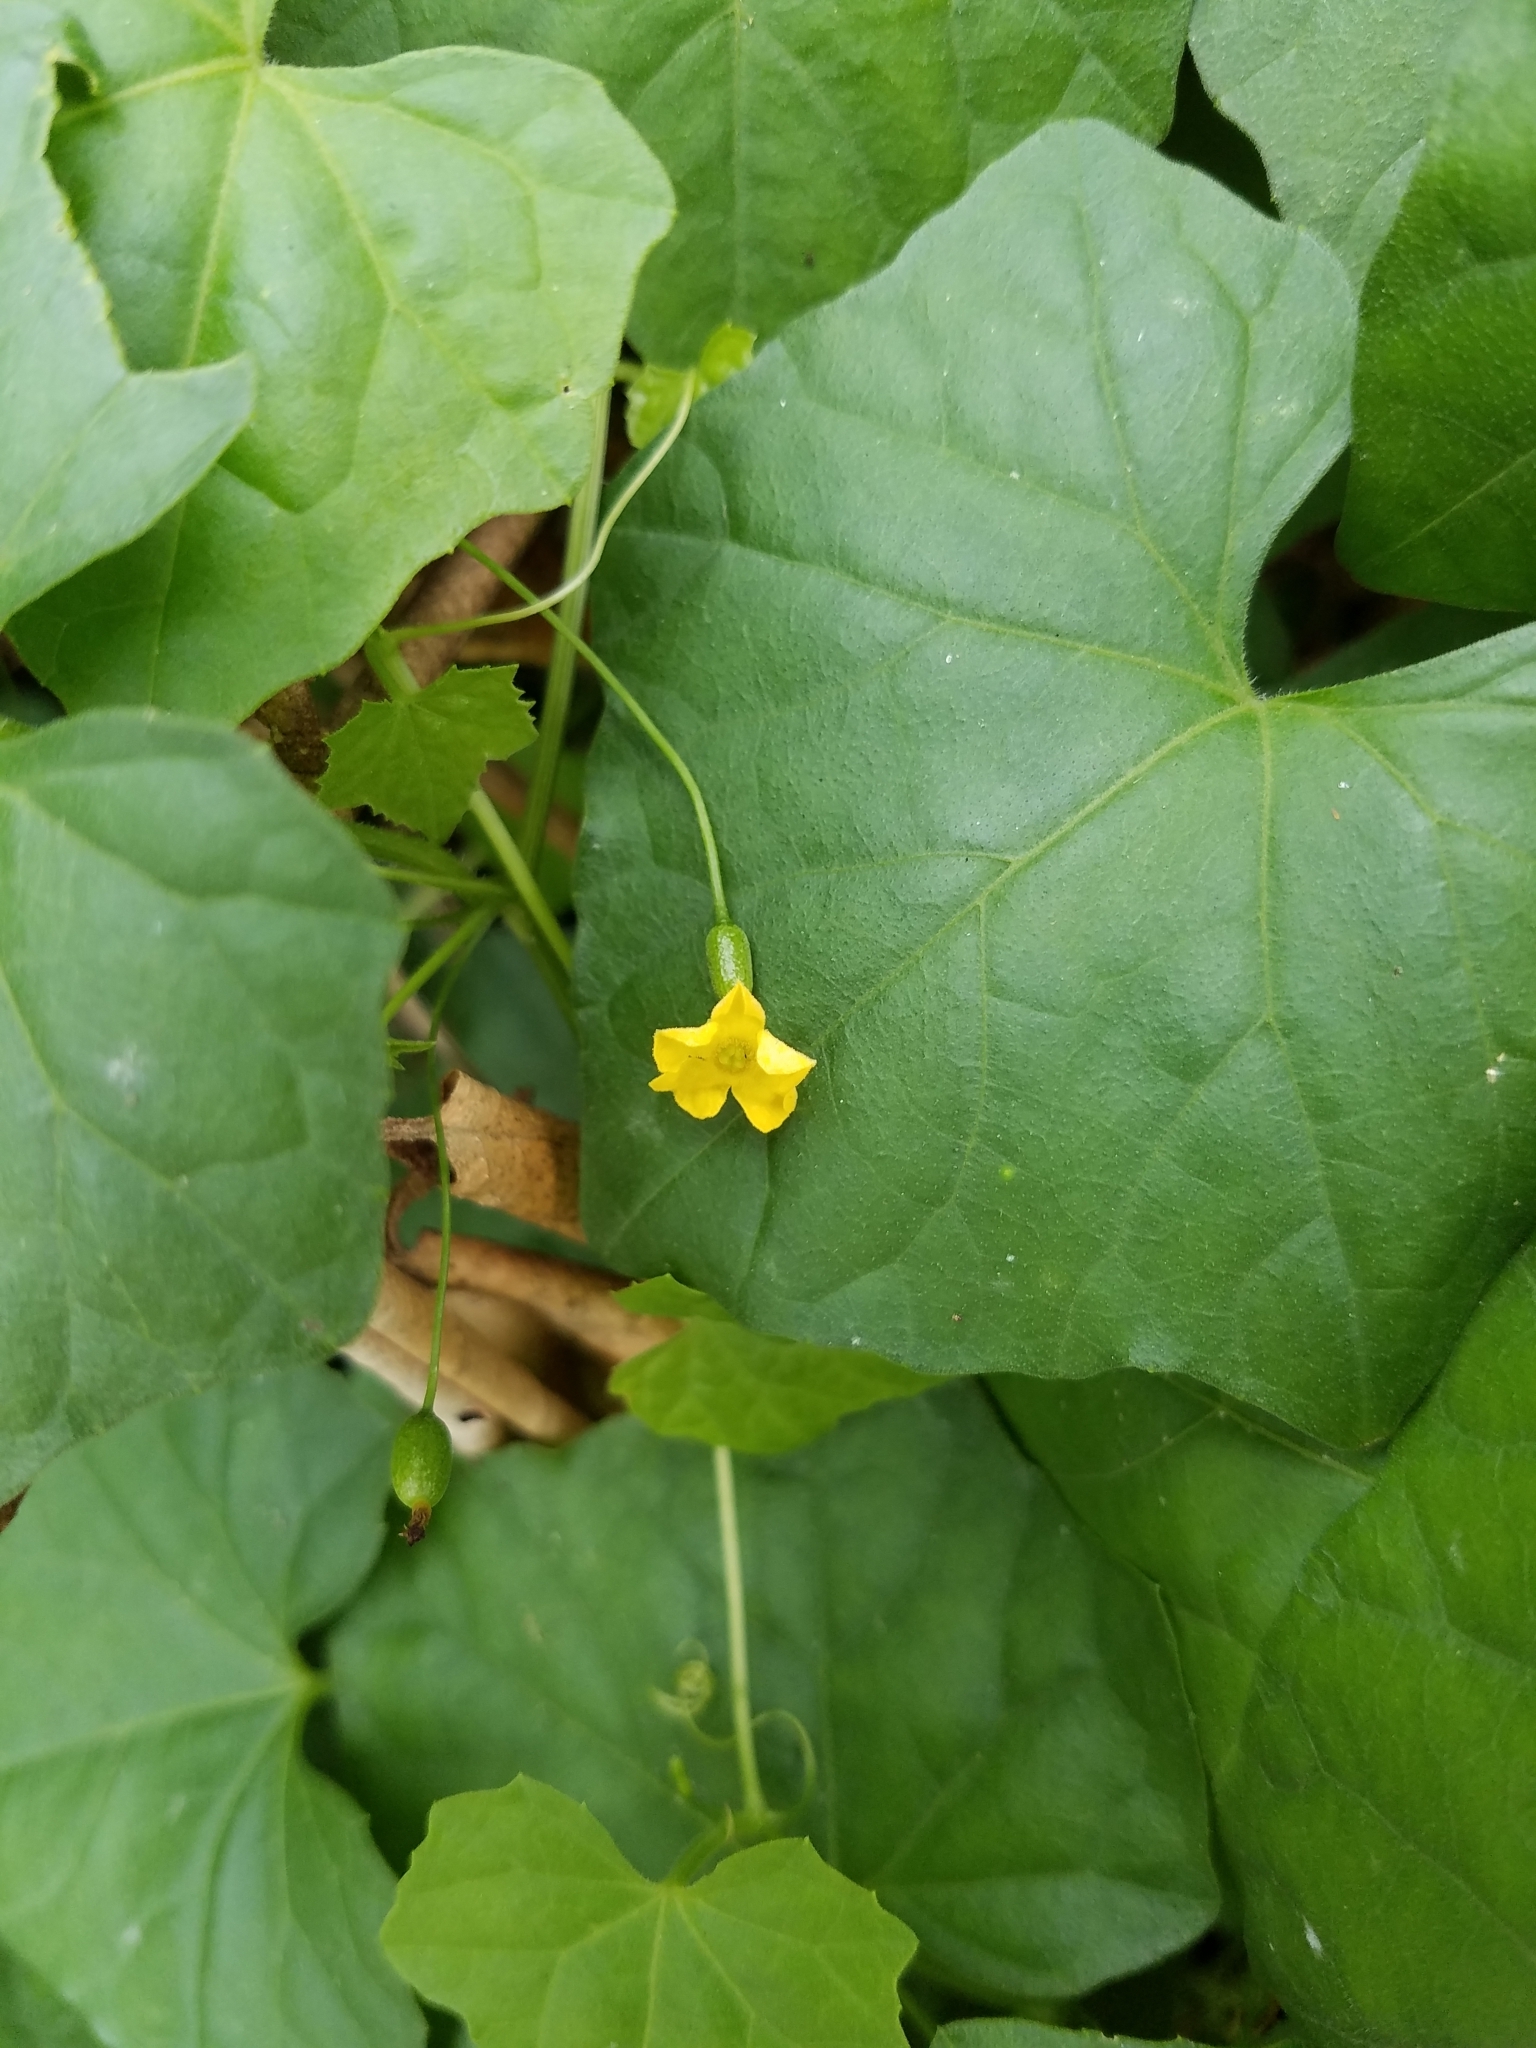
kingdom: Plantae
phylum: Tracheophyta
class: Magnoliopsida
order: Cucurbitales
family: Cucurbitaceae
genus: Melothria
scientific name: Melothria pendula
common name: Creeping-cucumber
